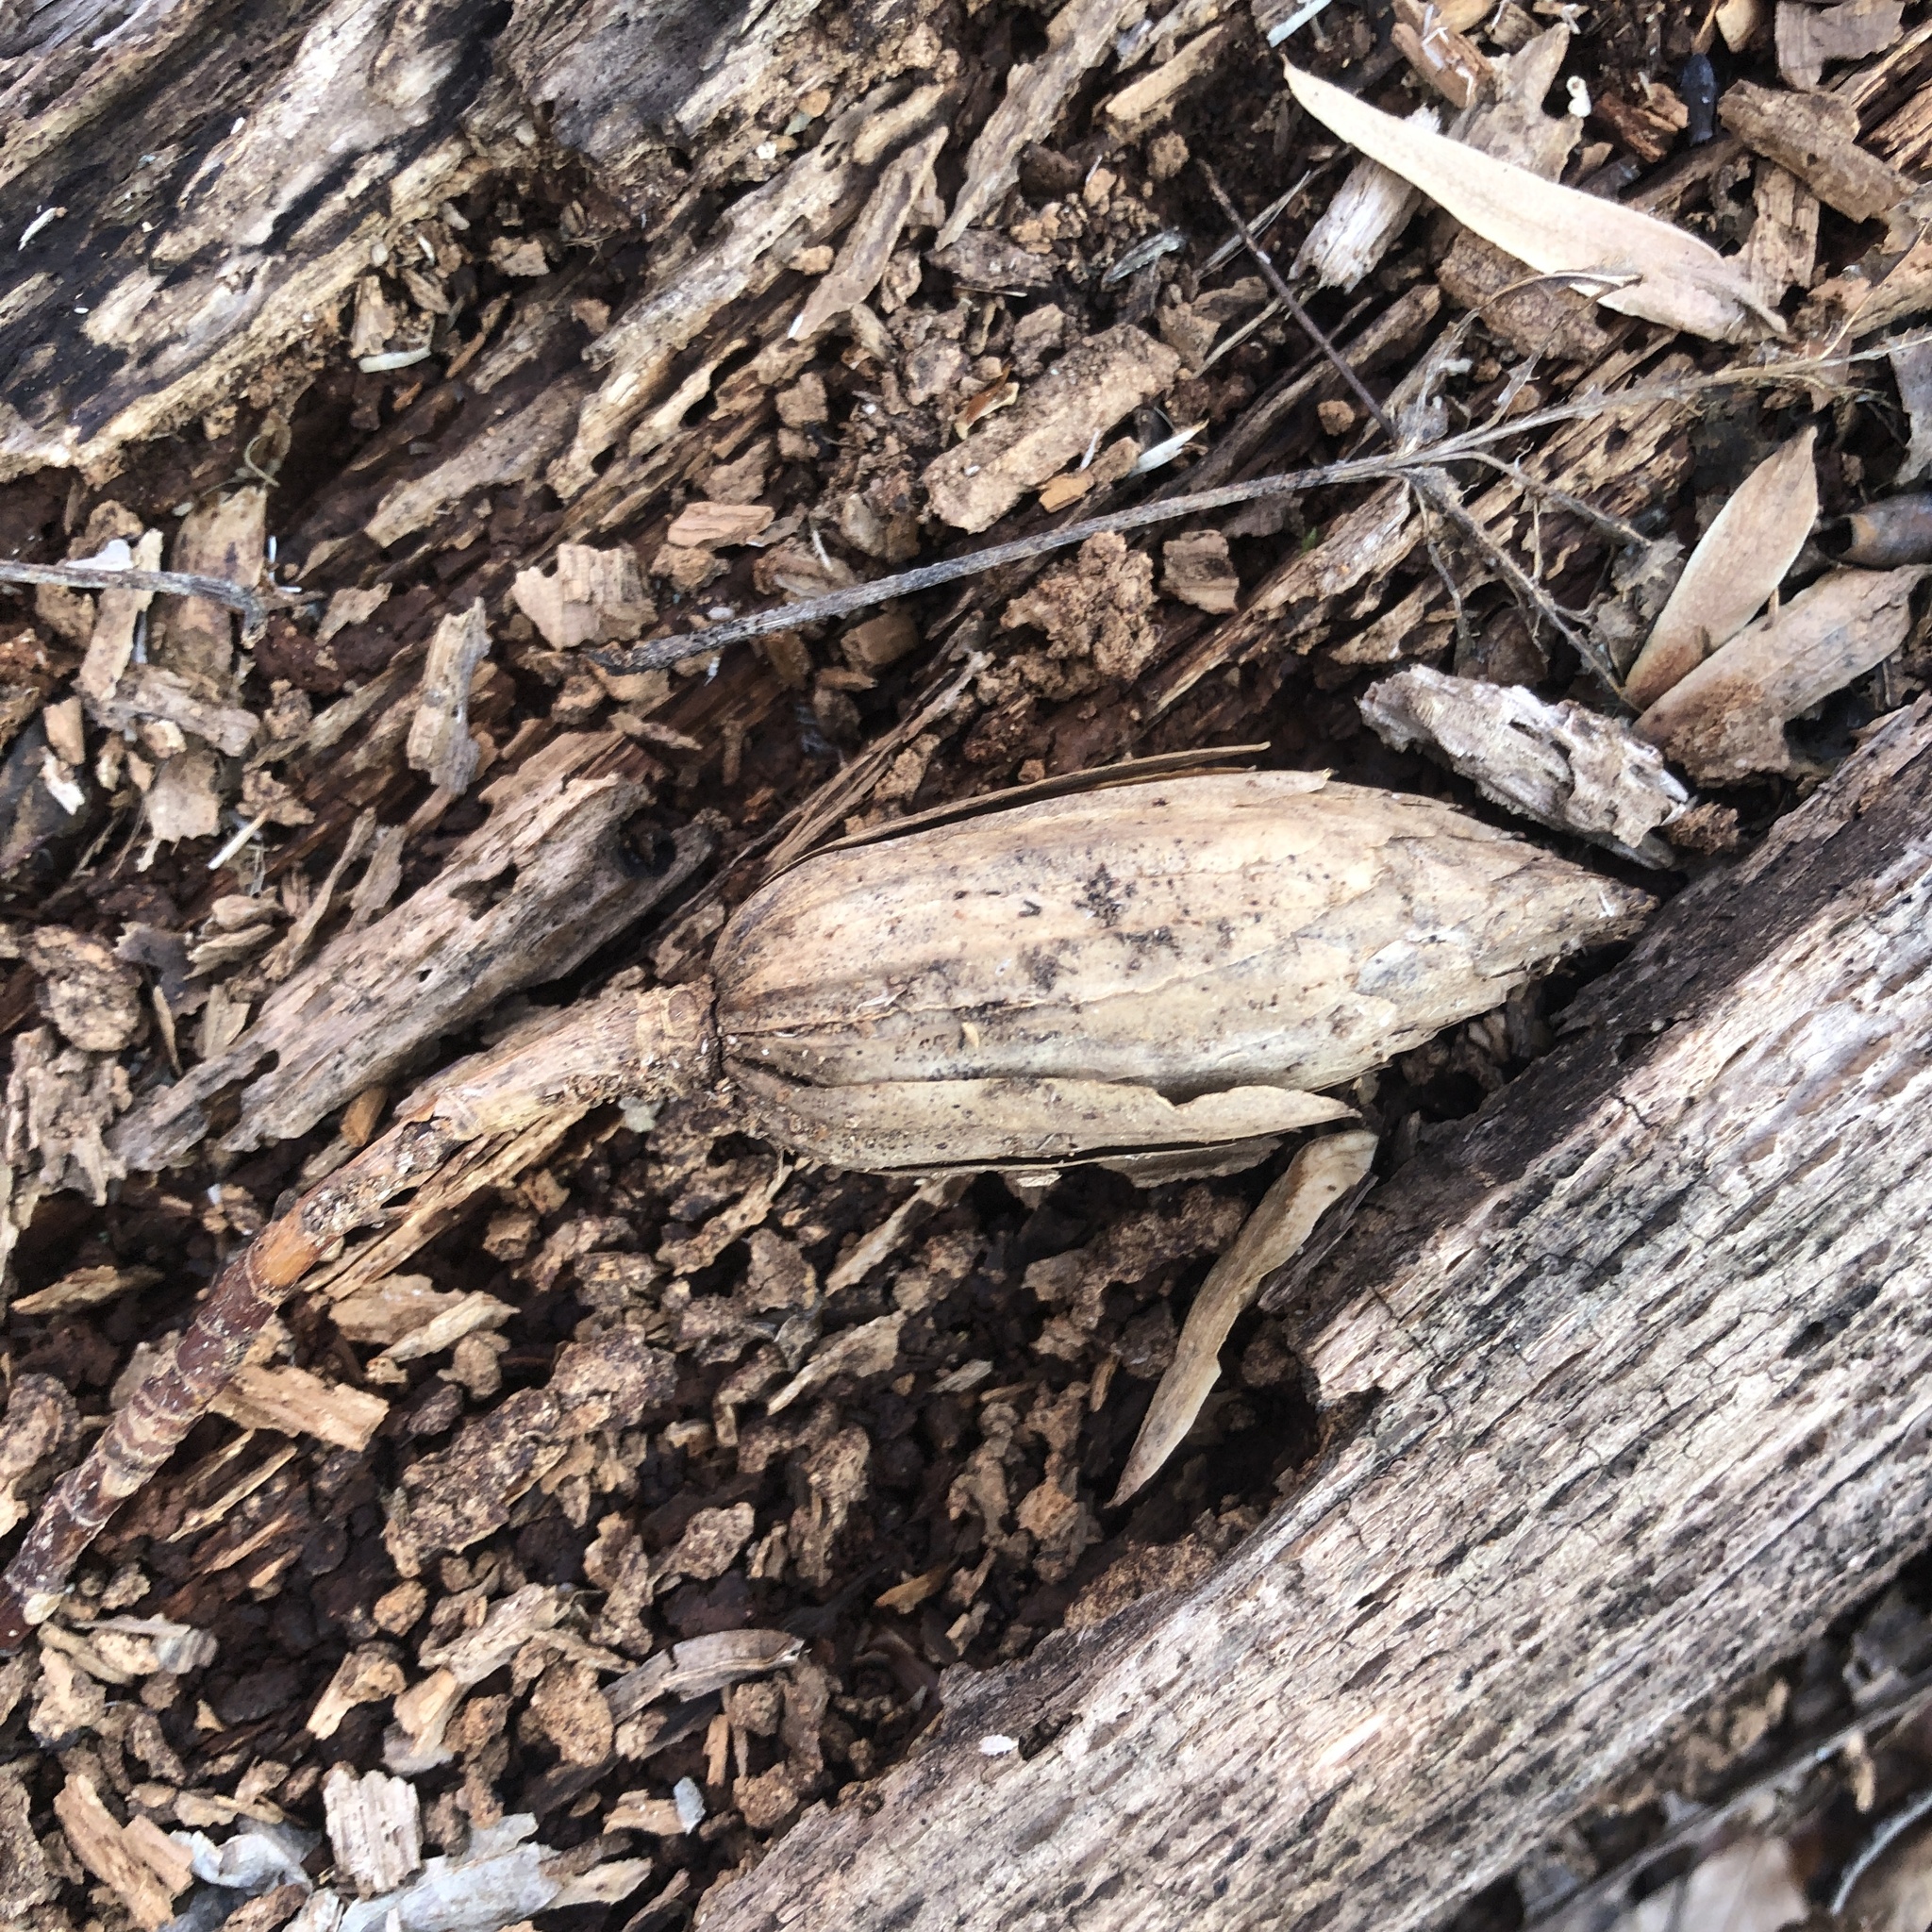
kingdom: Plantae
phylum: Tracheophyta
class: Magnoliopsida
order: Magnoliales
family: Magnoliaceae
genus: Liriodendron
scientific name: Liriodendron tulipifera
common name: Tulip tree
